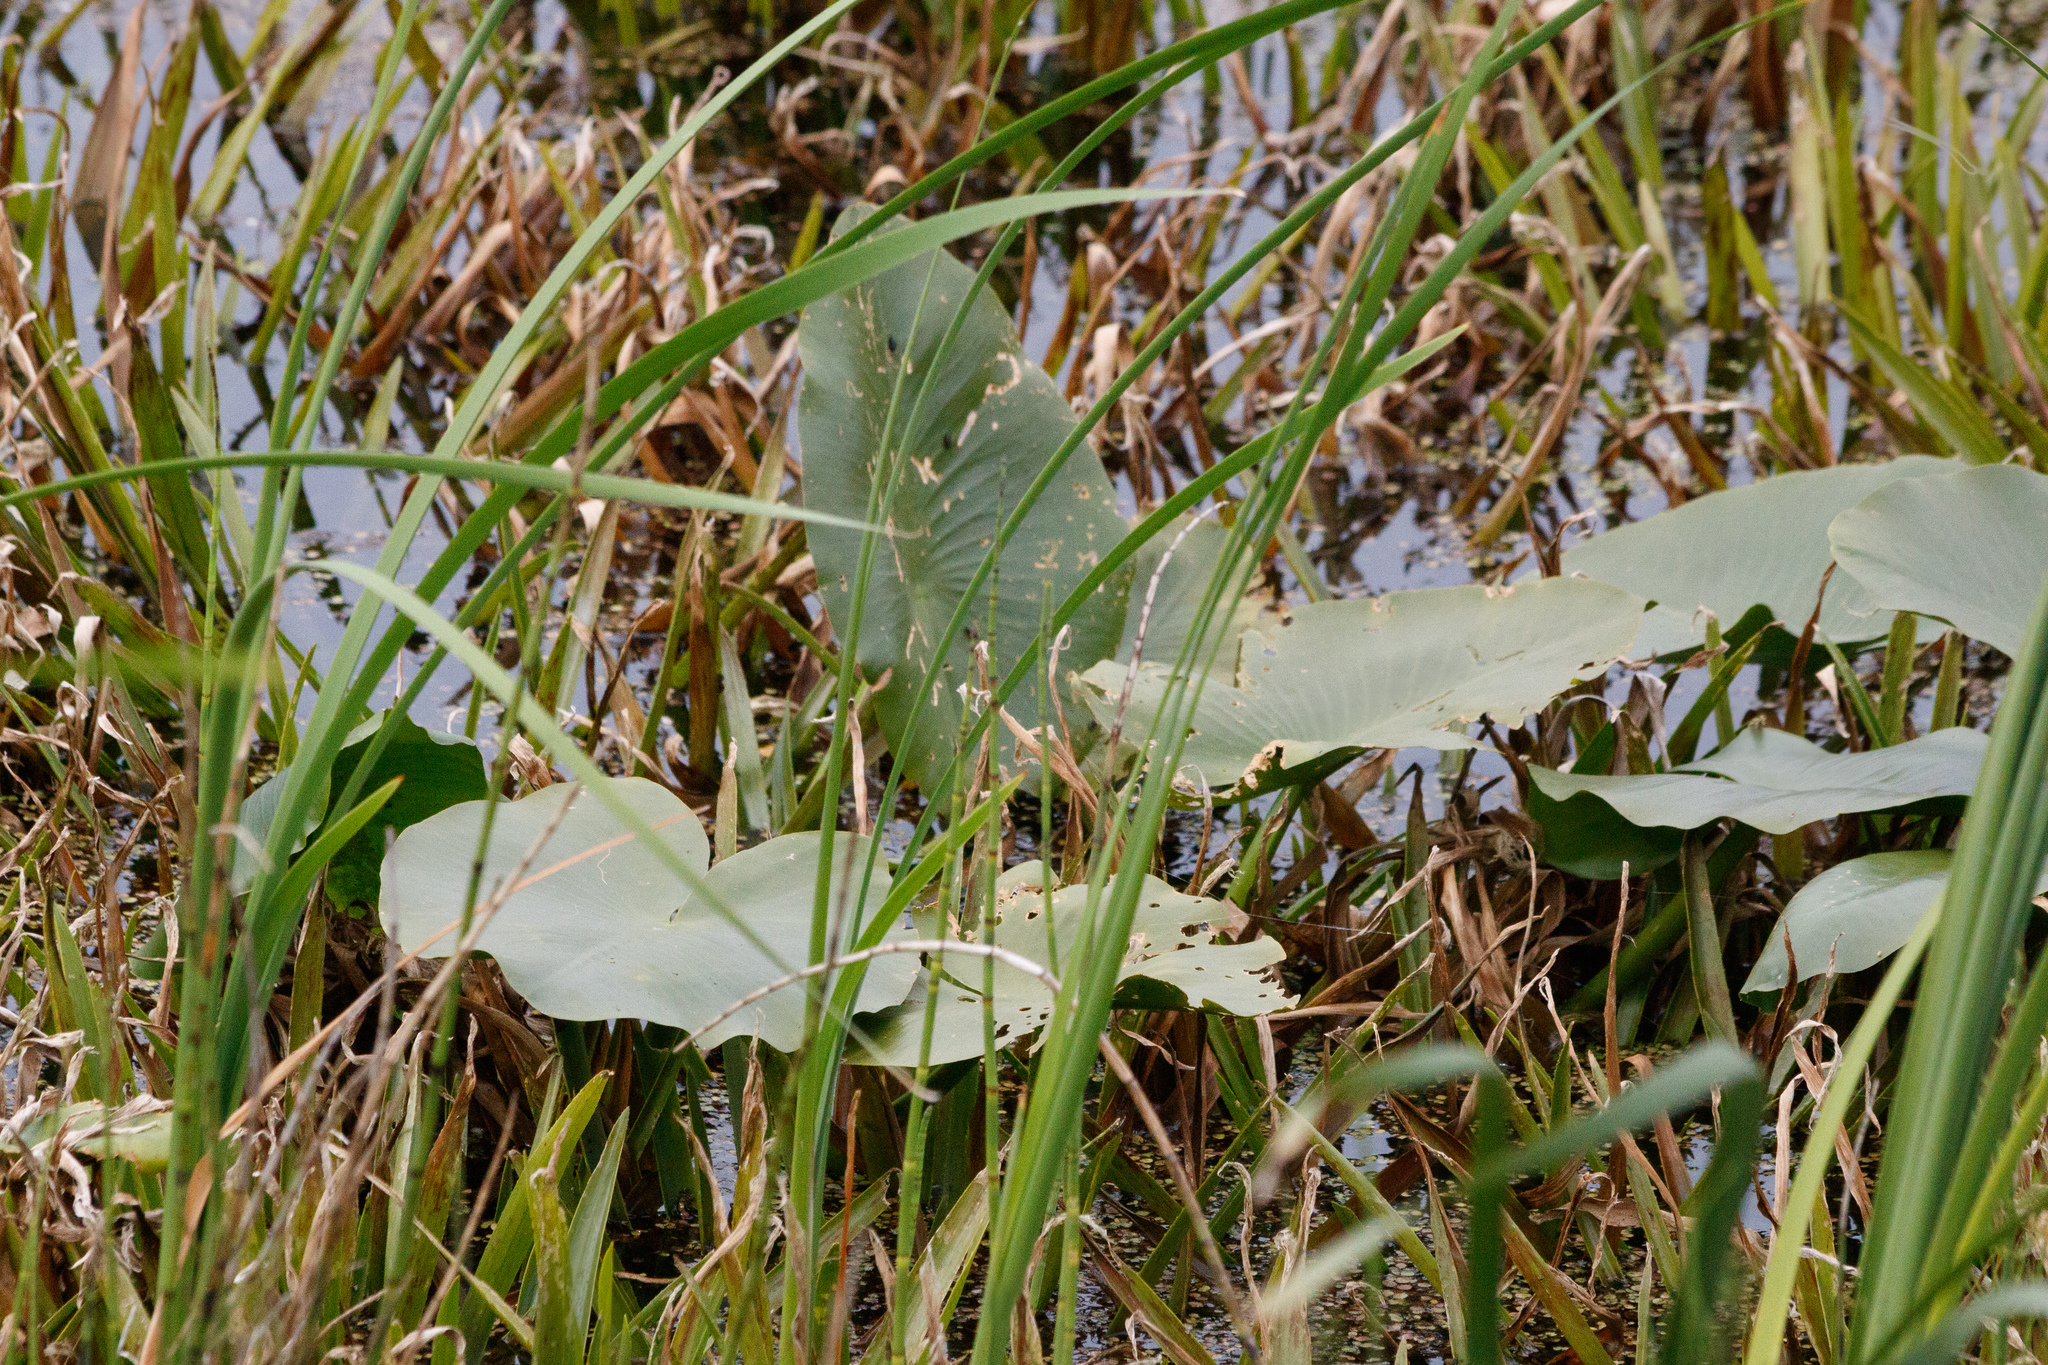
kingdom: Plantae
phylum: Tracheophyta
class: Magnoliopsida
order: Nymphaeales
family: Nymphaeaceae
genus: Nuphar
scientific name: Nuphar lutea
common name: Yellow water-lily
